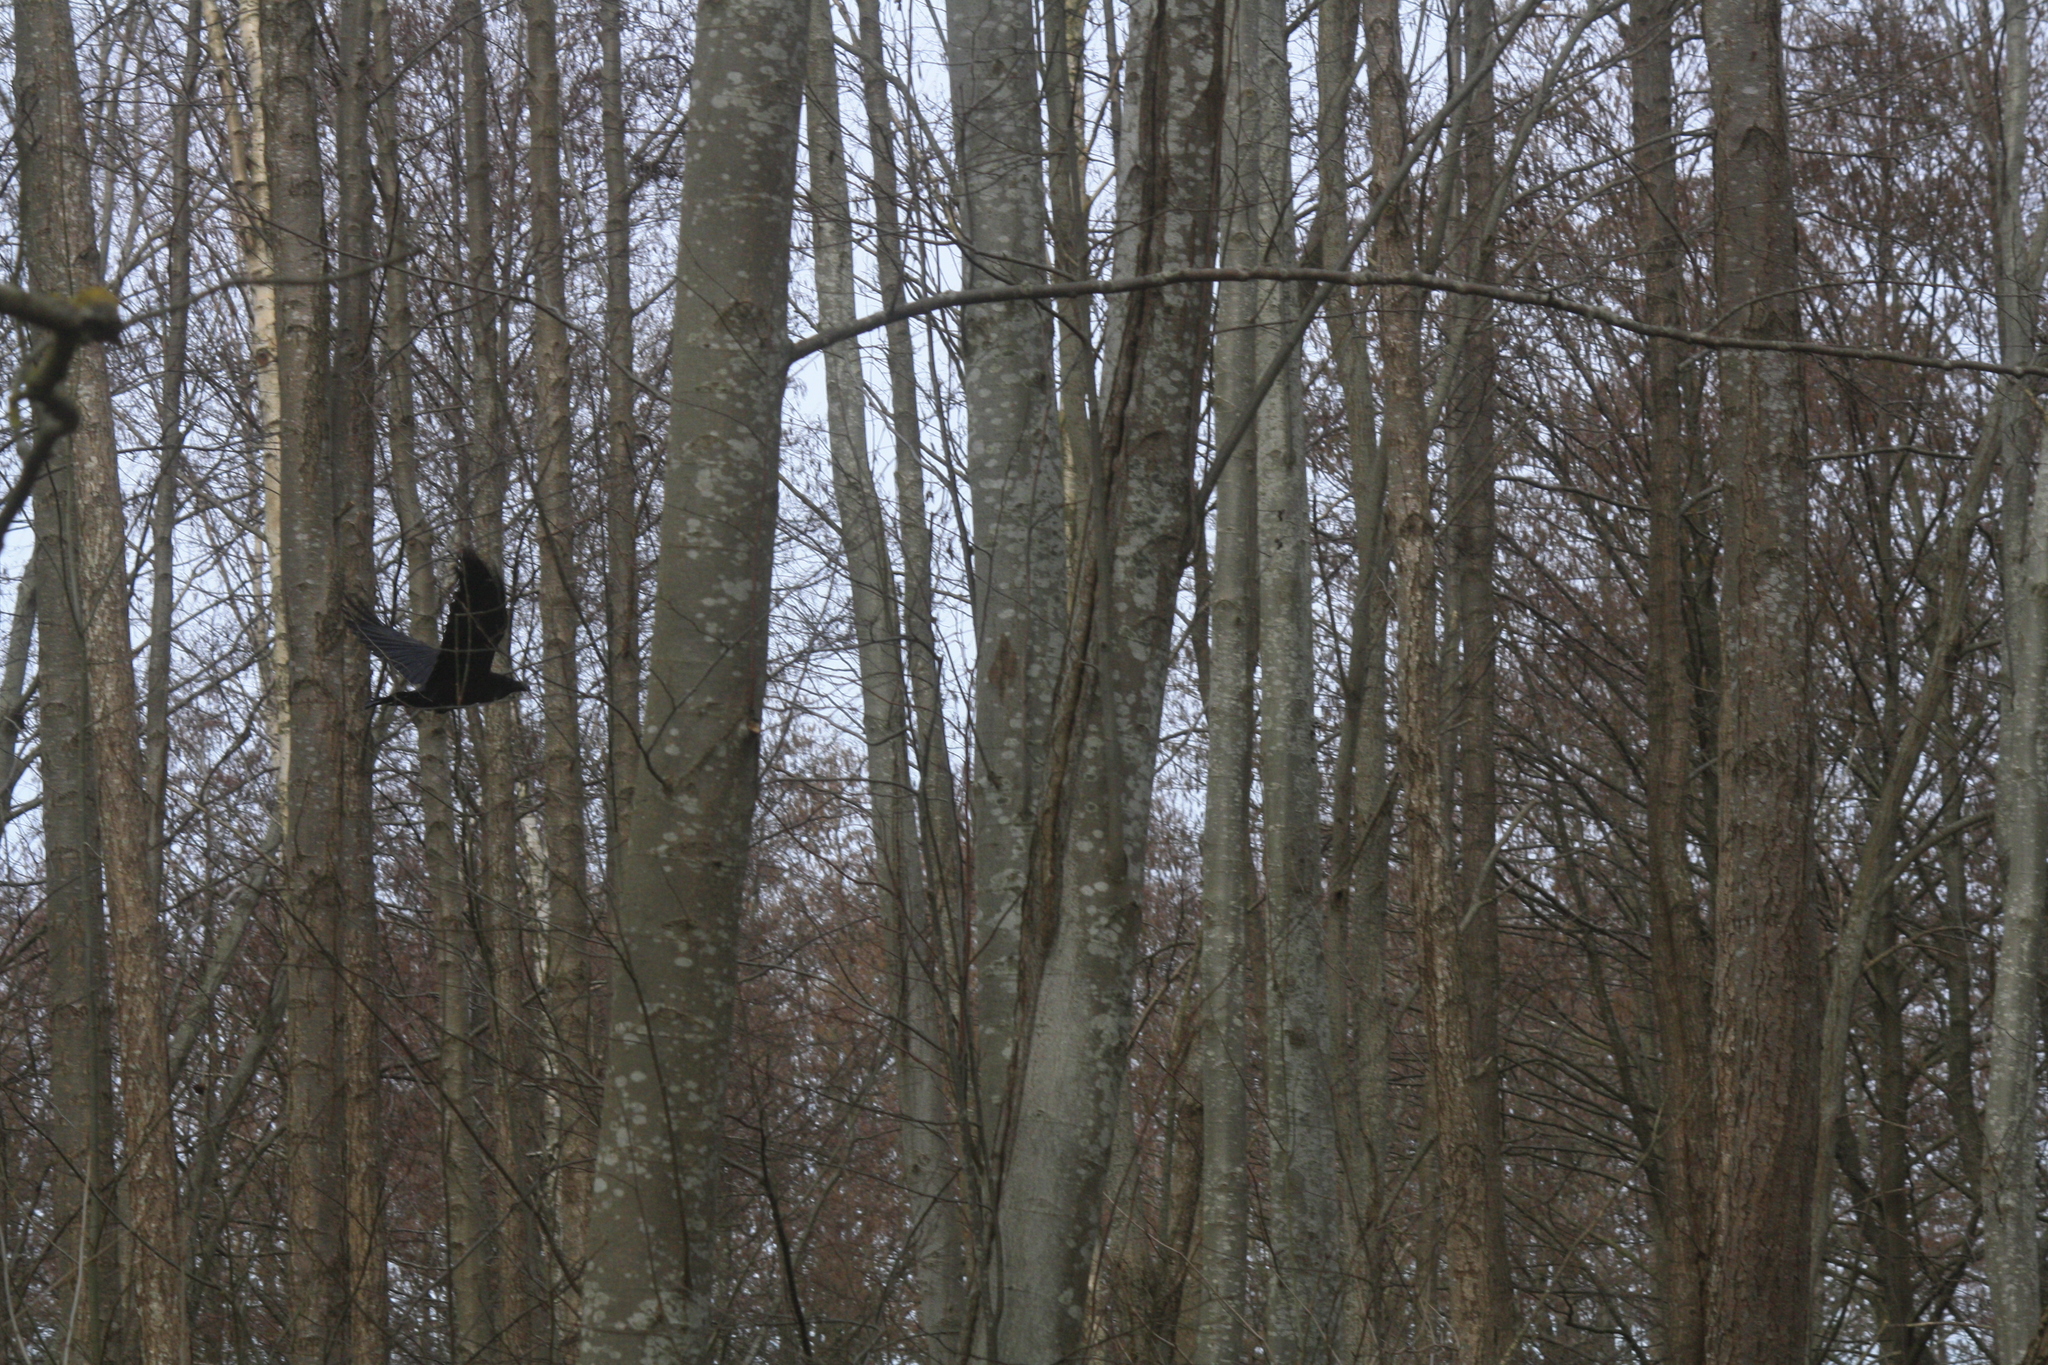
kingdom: Animalia
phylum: Chordata
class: Aves
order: Passeriformes
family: Corvidae
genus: Corvus
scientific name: Corvus corax
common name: Common raven
